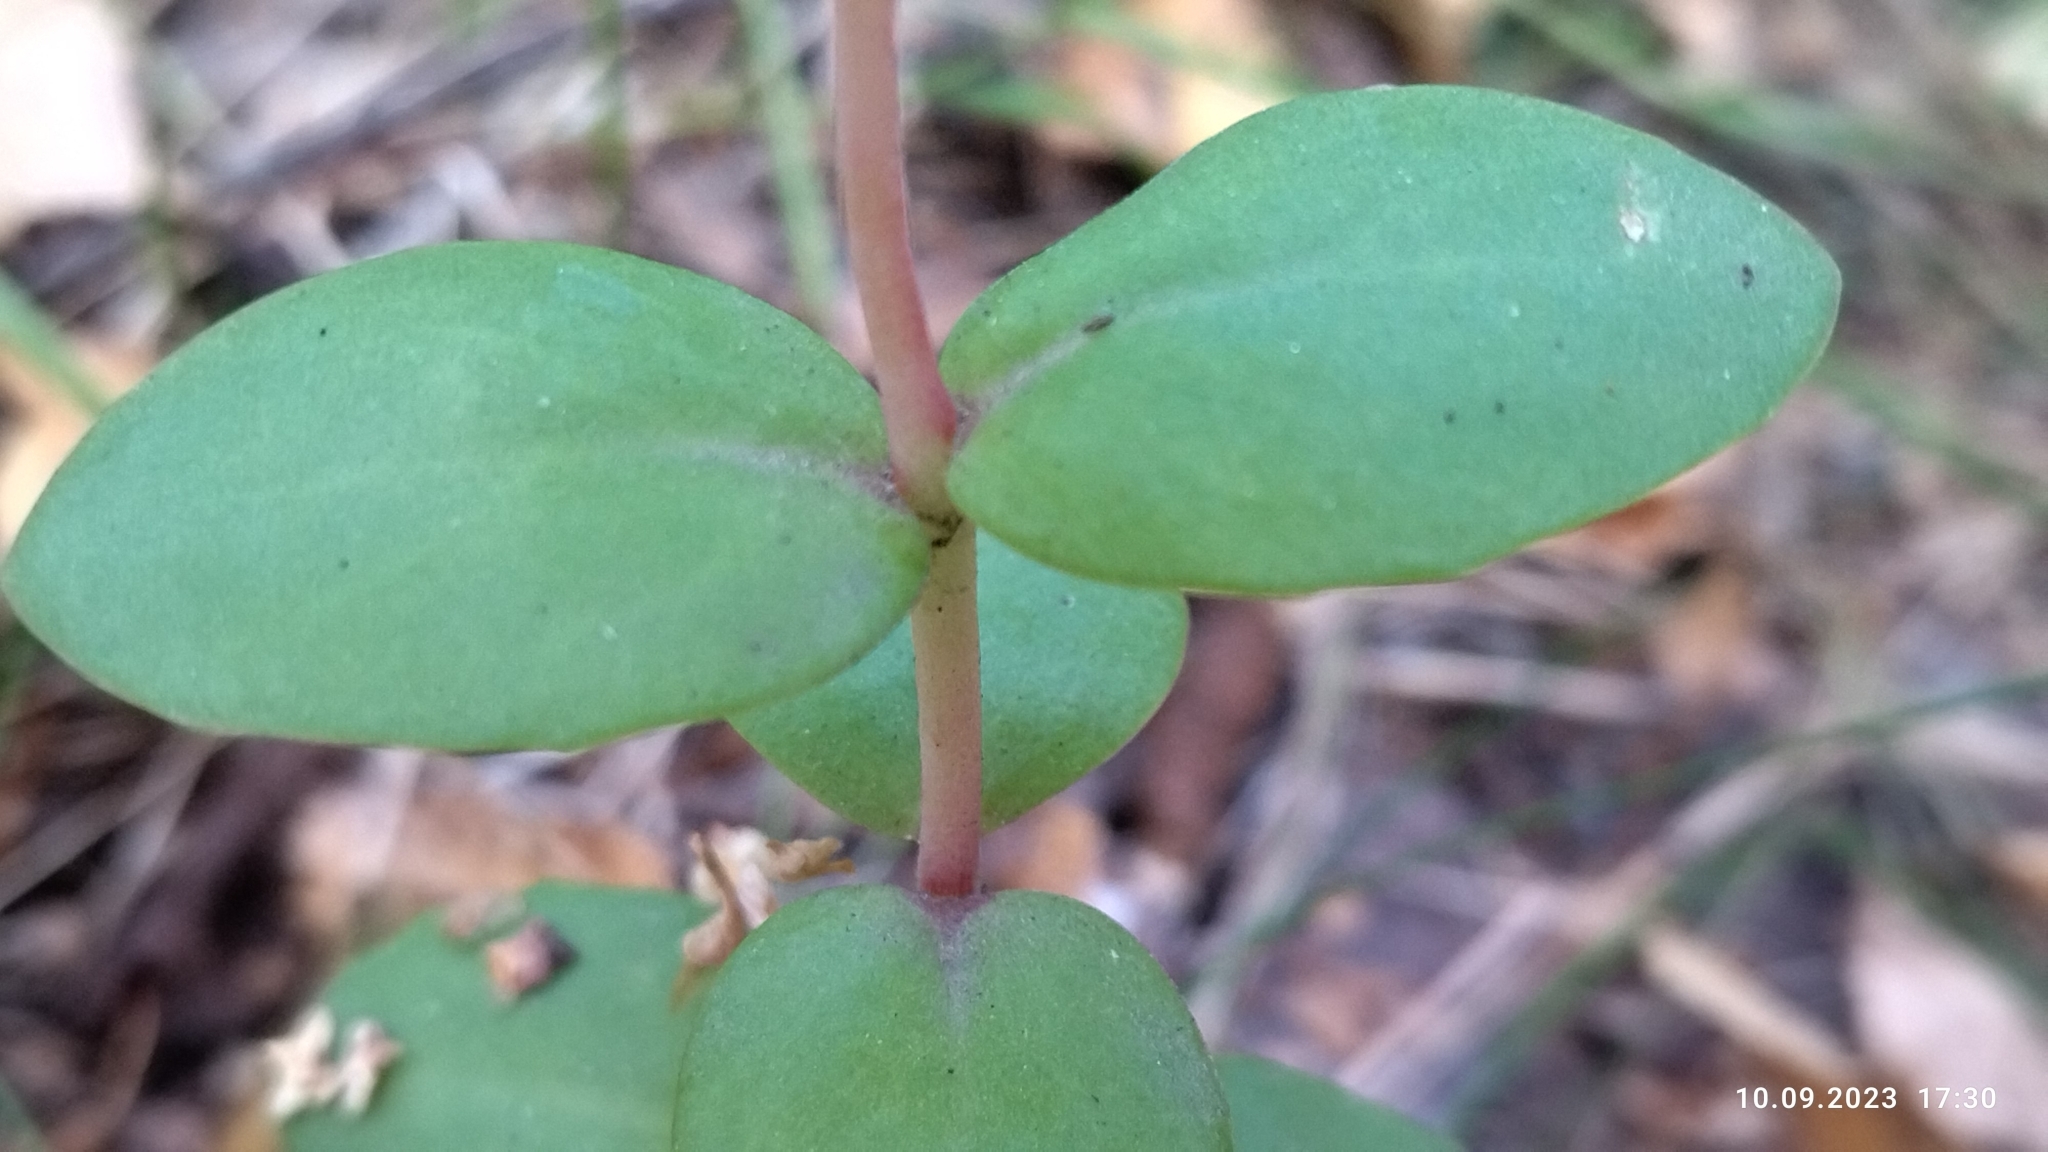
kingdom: Plantae
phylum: Tracheophyta
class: Magnoliopsida
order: Saxifragales
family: Crassulaceae
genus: Hylotelephium
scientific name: Hylotelephium maximum
